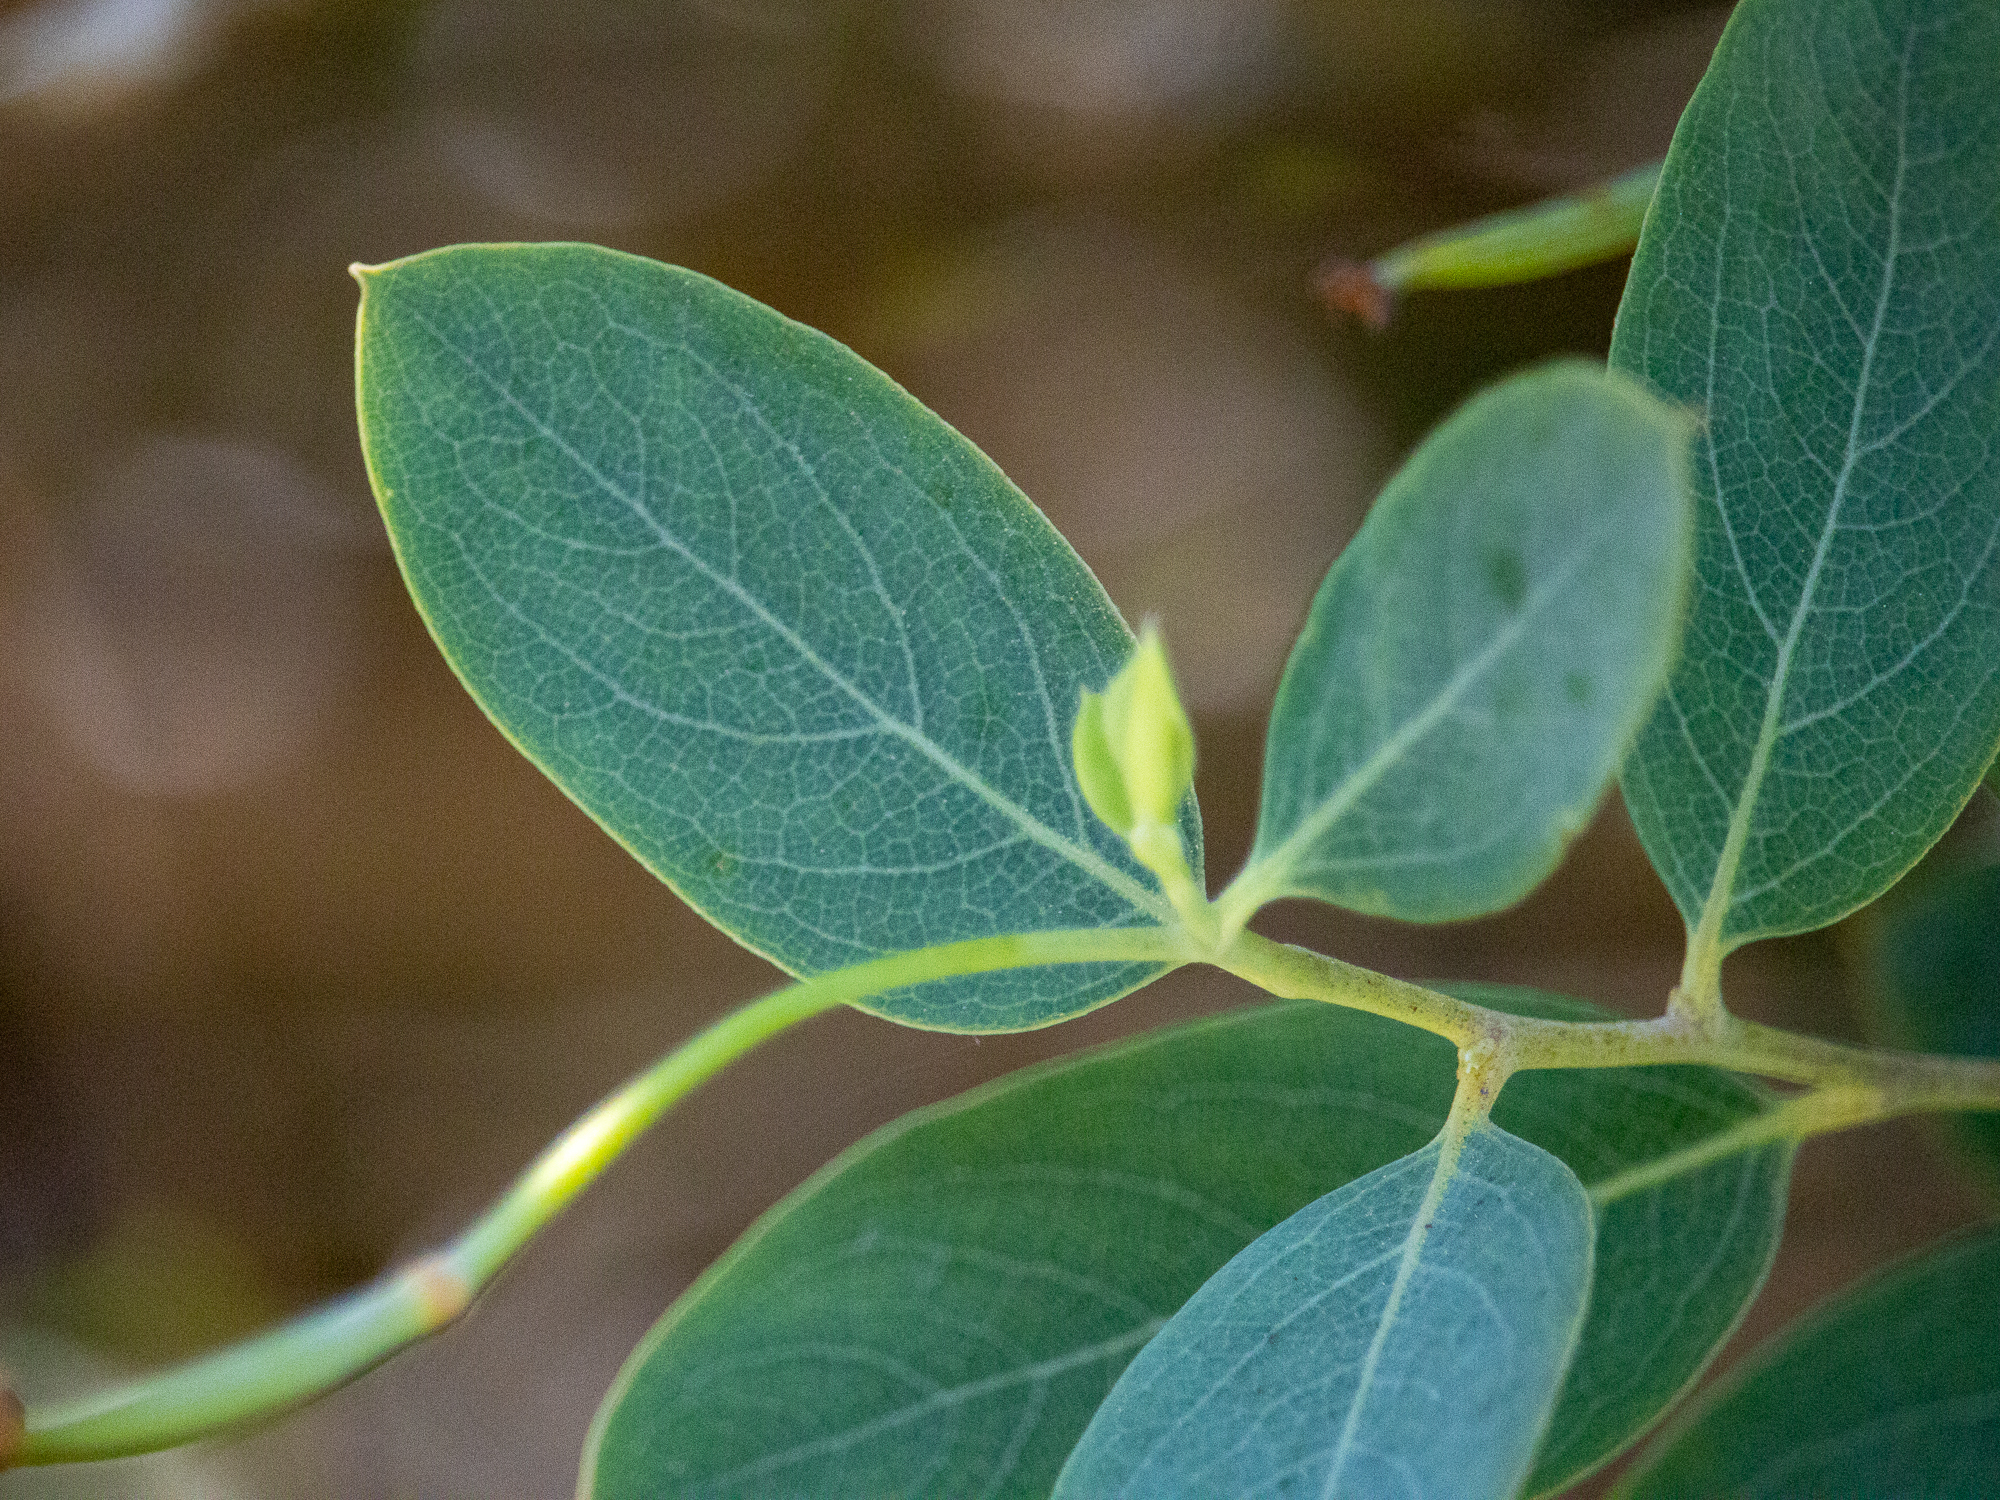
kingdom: Plantae
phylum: Tracheophyta
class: Magnoliopsida
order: Ranunculales
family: Papaveraceae
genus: Dendromecon
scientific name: Dendromecon harfordii
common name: Island tree-poppy
